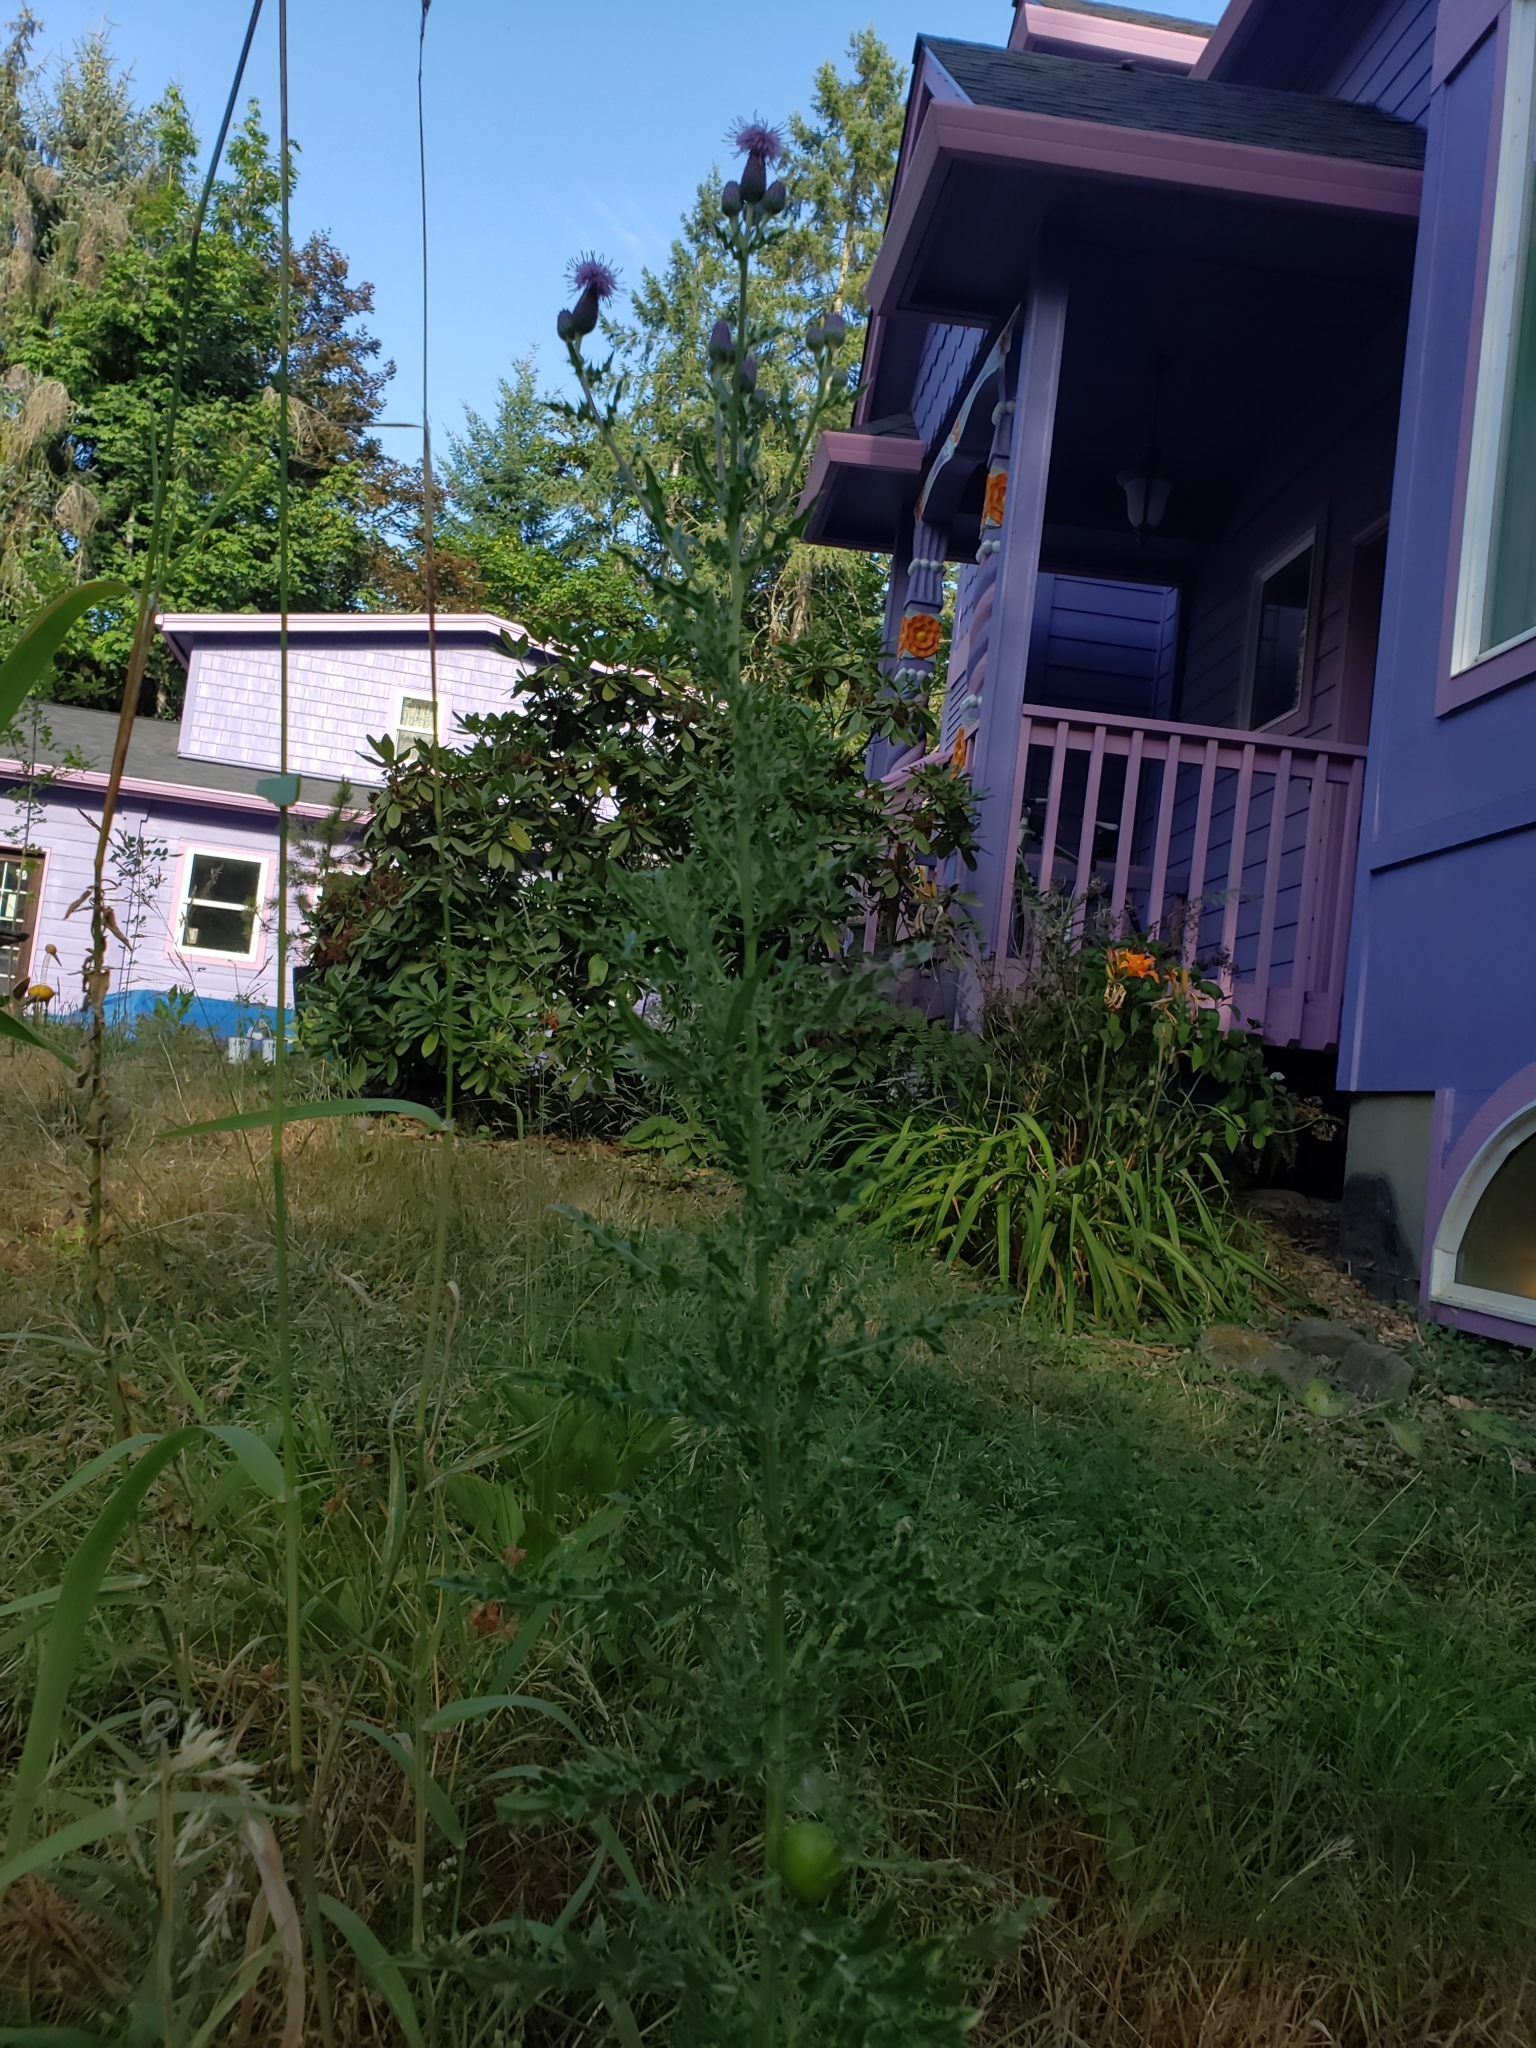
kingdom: Animalia
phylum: Arthropoda
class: Insecta
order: Diptera
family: Tephritidae
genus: Urophora
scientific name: Urophora cardui
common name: Fruit fly
